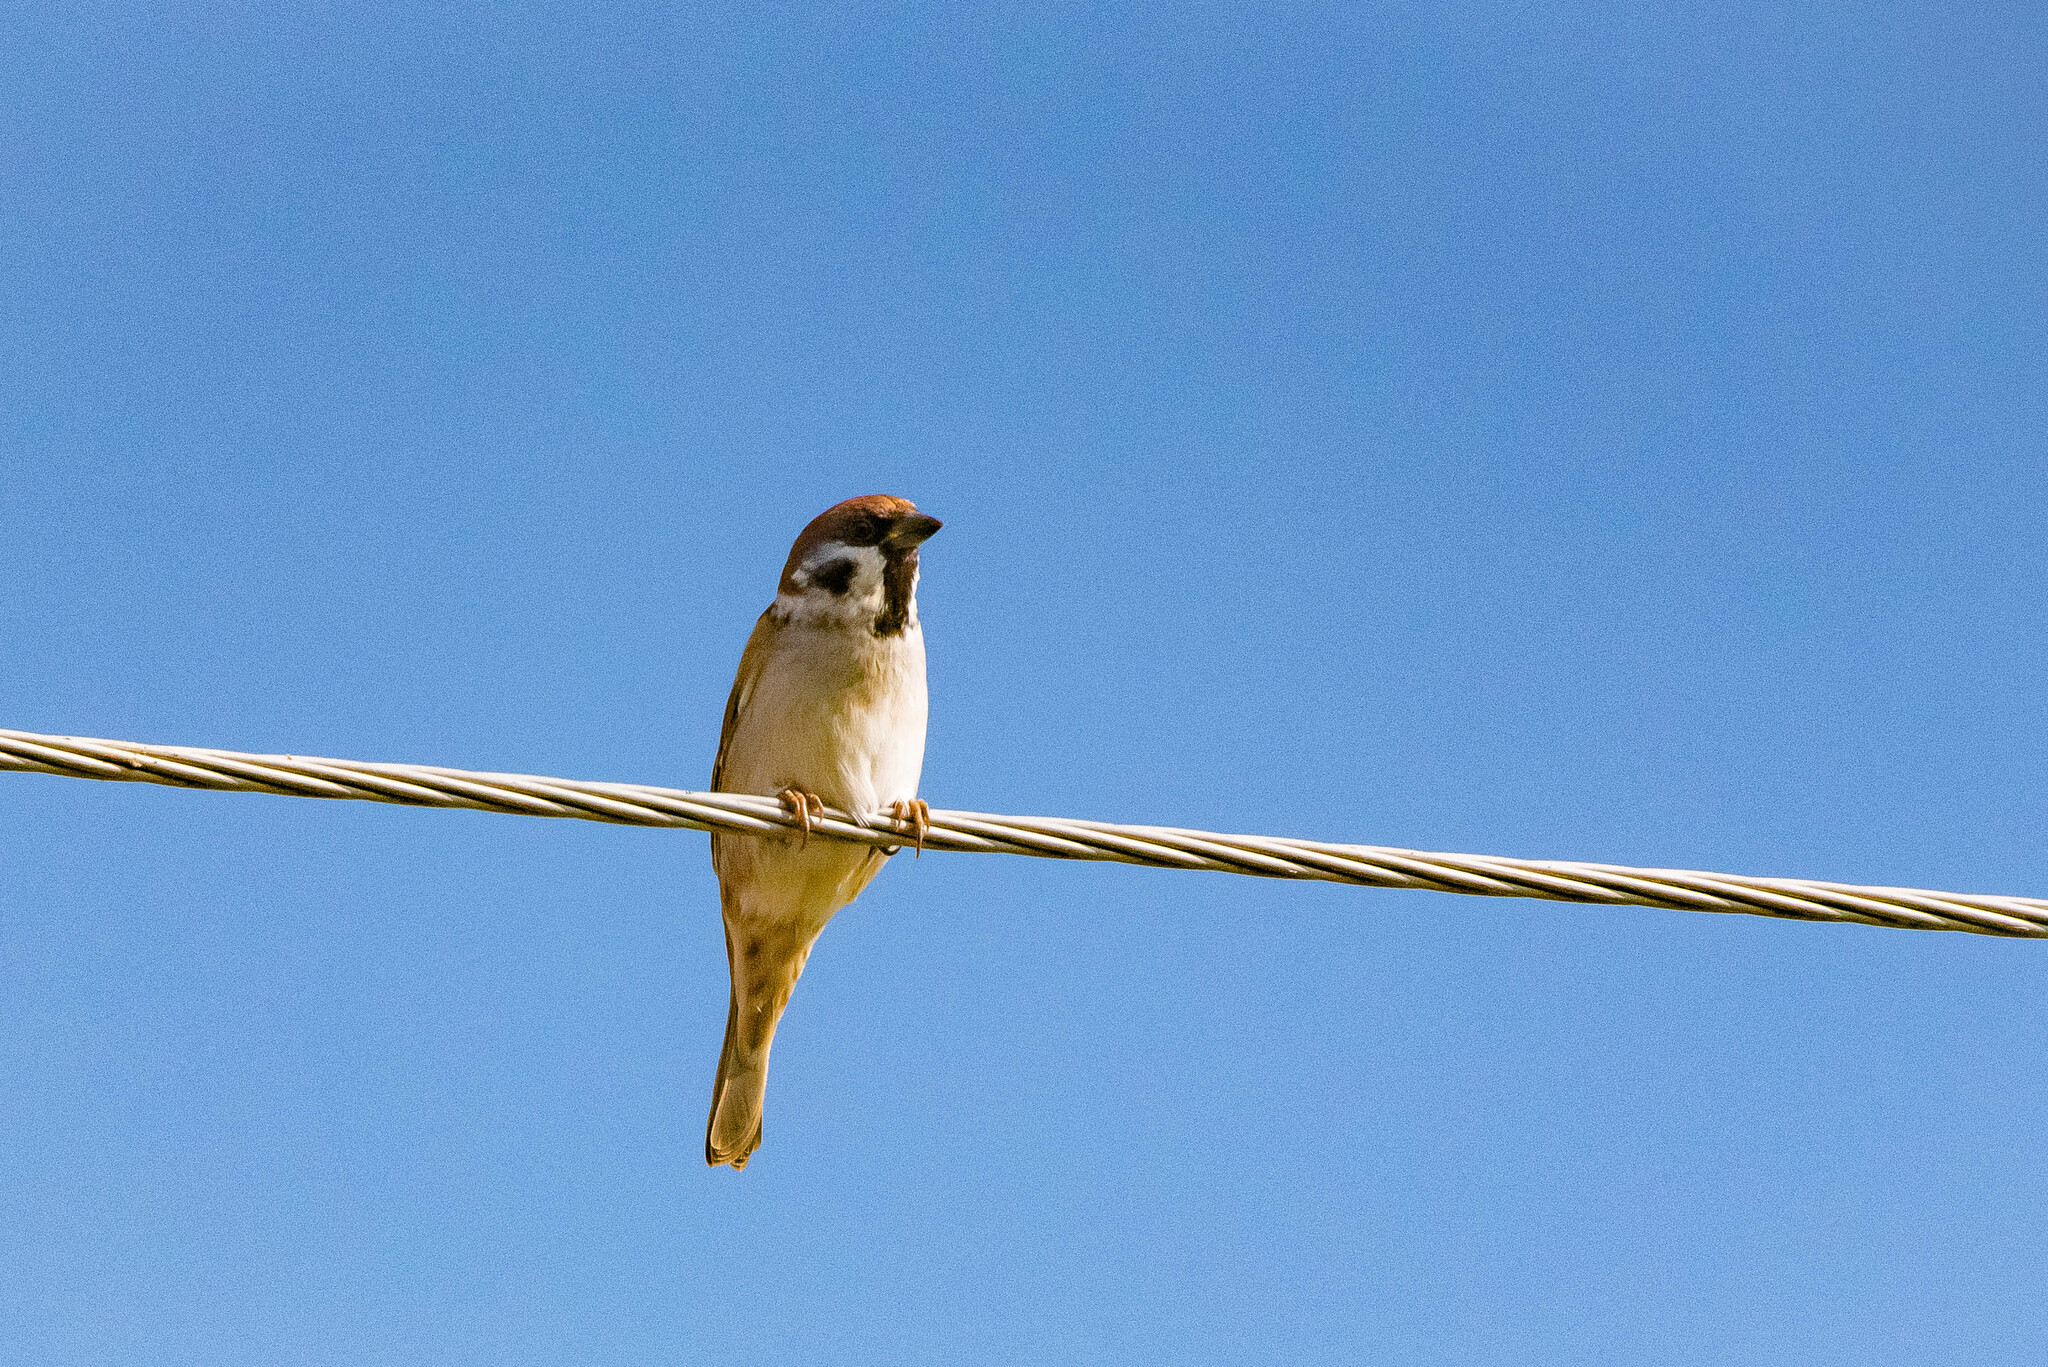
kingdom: Animalia
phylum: Chordata
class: Aves
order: Passeriformes
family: Passeridae
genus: Passer
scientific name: Passer montanus
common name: Eurasian tree sparrow
